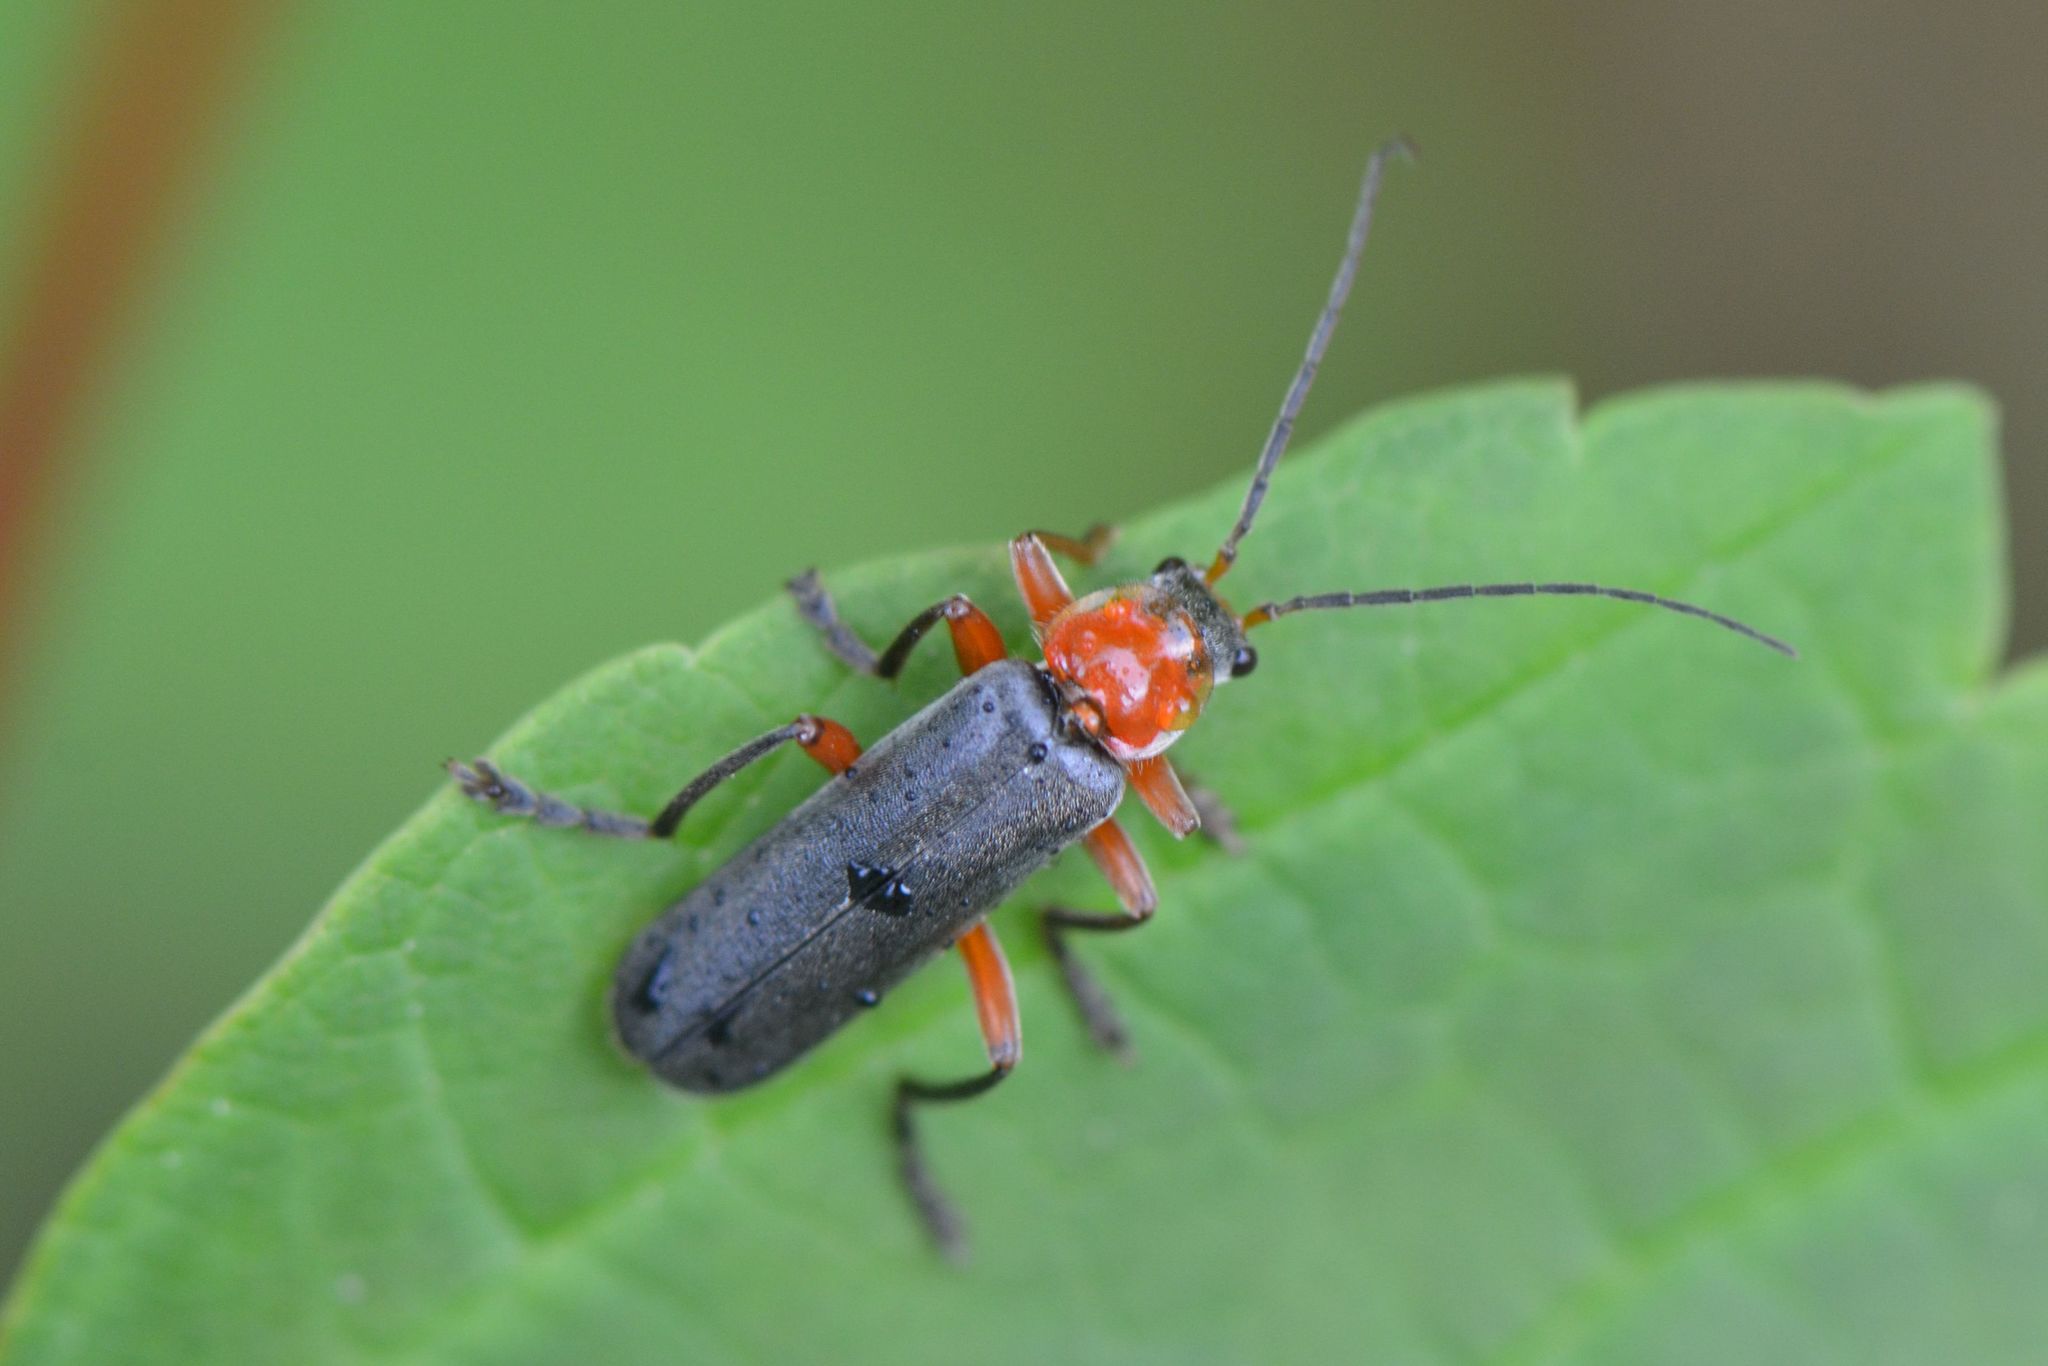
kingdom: Animalia
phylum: Arthropoda
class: Insecta
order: Coleoptera
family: Cantharidae
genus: Cantharis
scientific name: Cantharis pellucida
